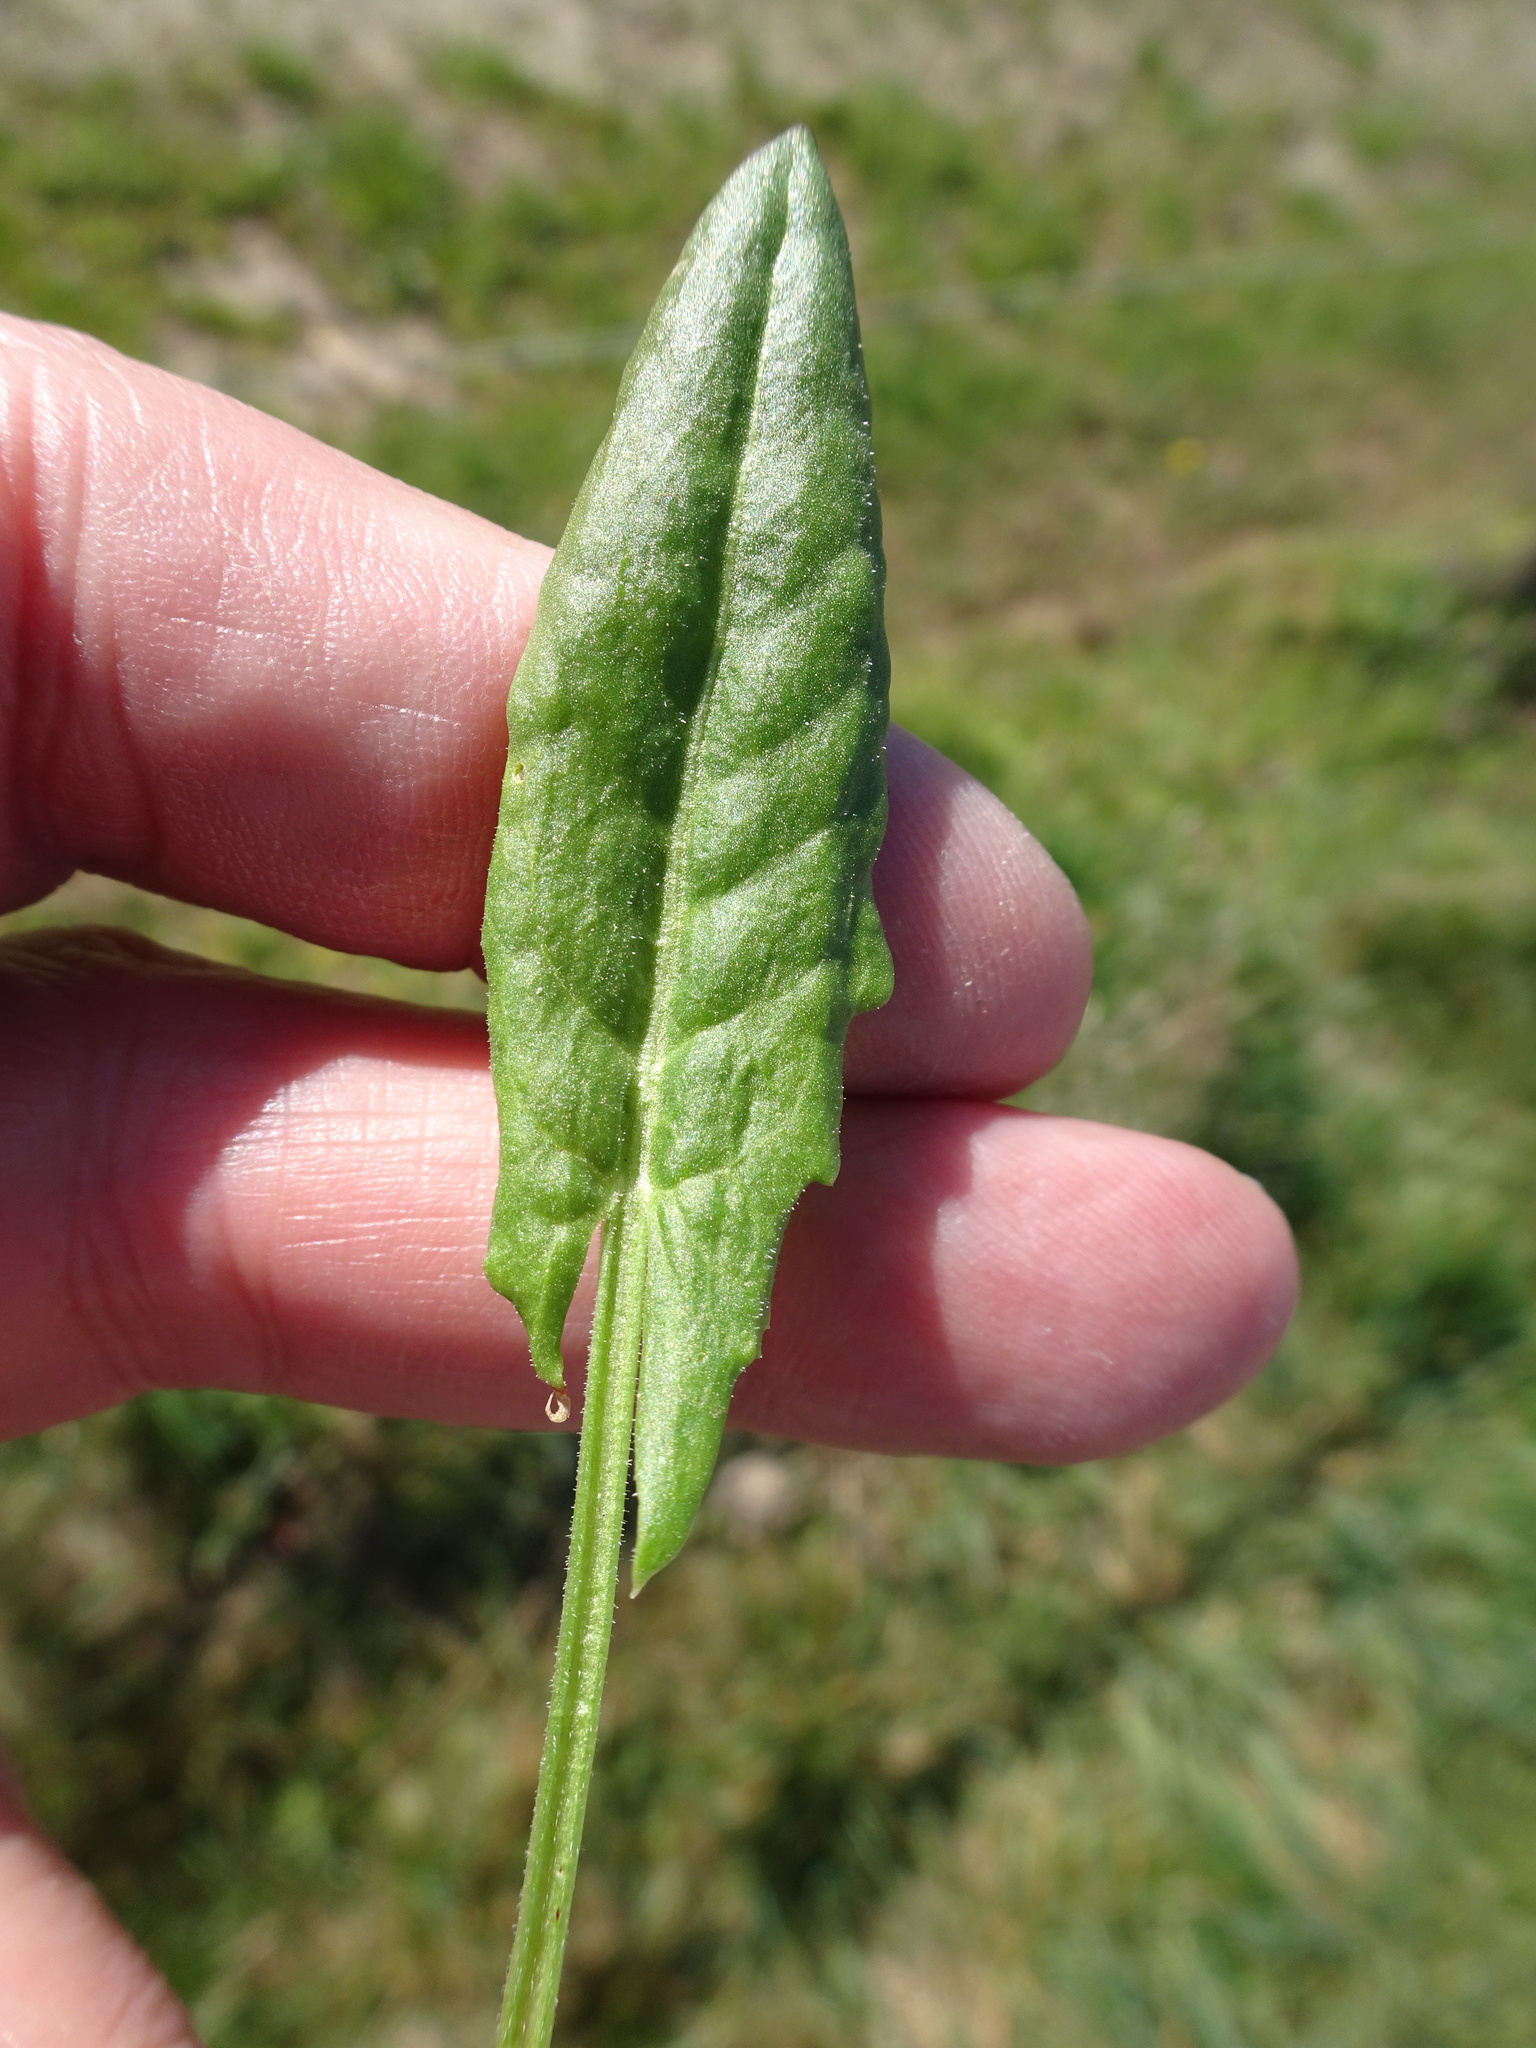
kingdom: Plantae
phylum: Tracheophyta
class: Magnoliopsida
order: Caryophyllales
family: Polygonaceae
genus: Rumex
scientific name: Rumex acetosa
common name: Garden sorrel
